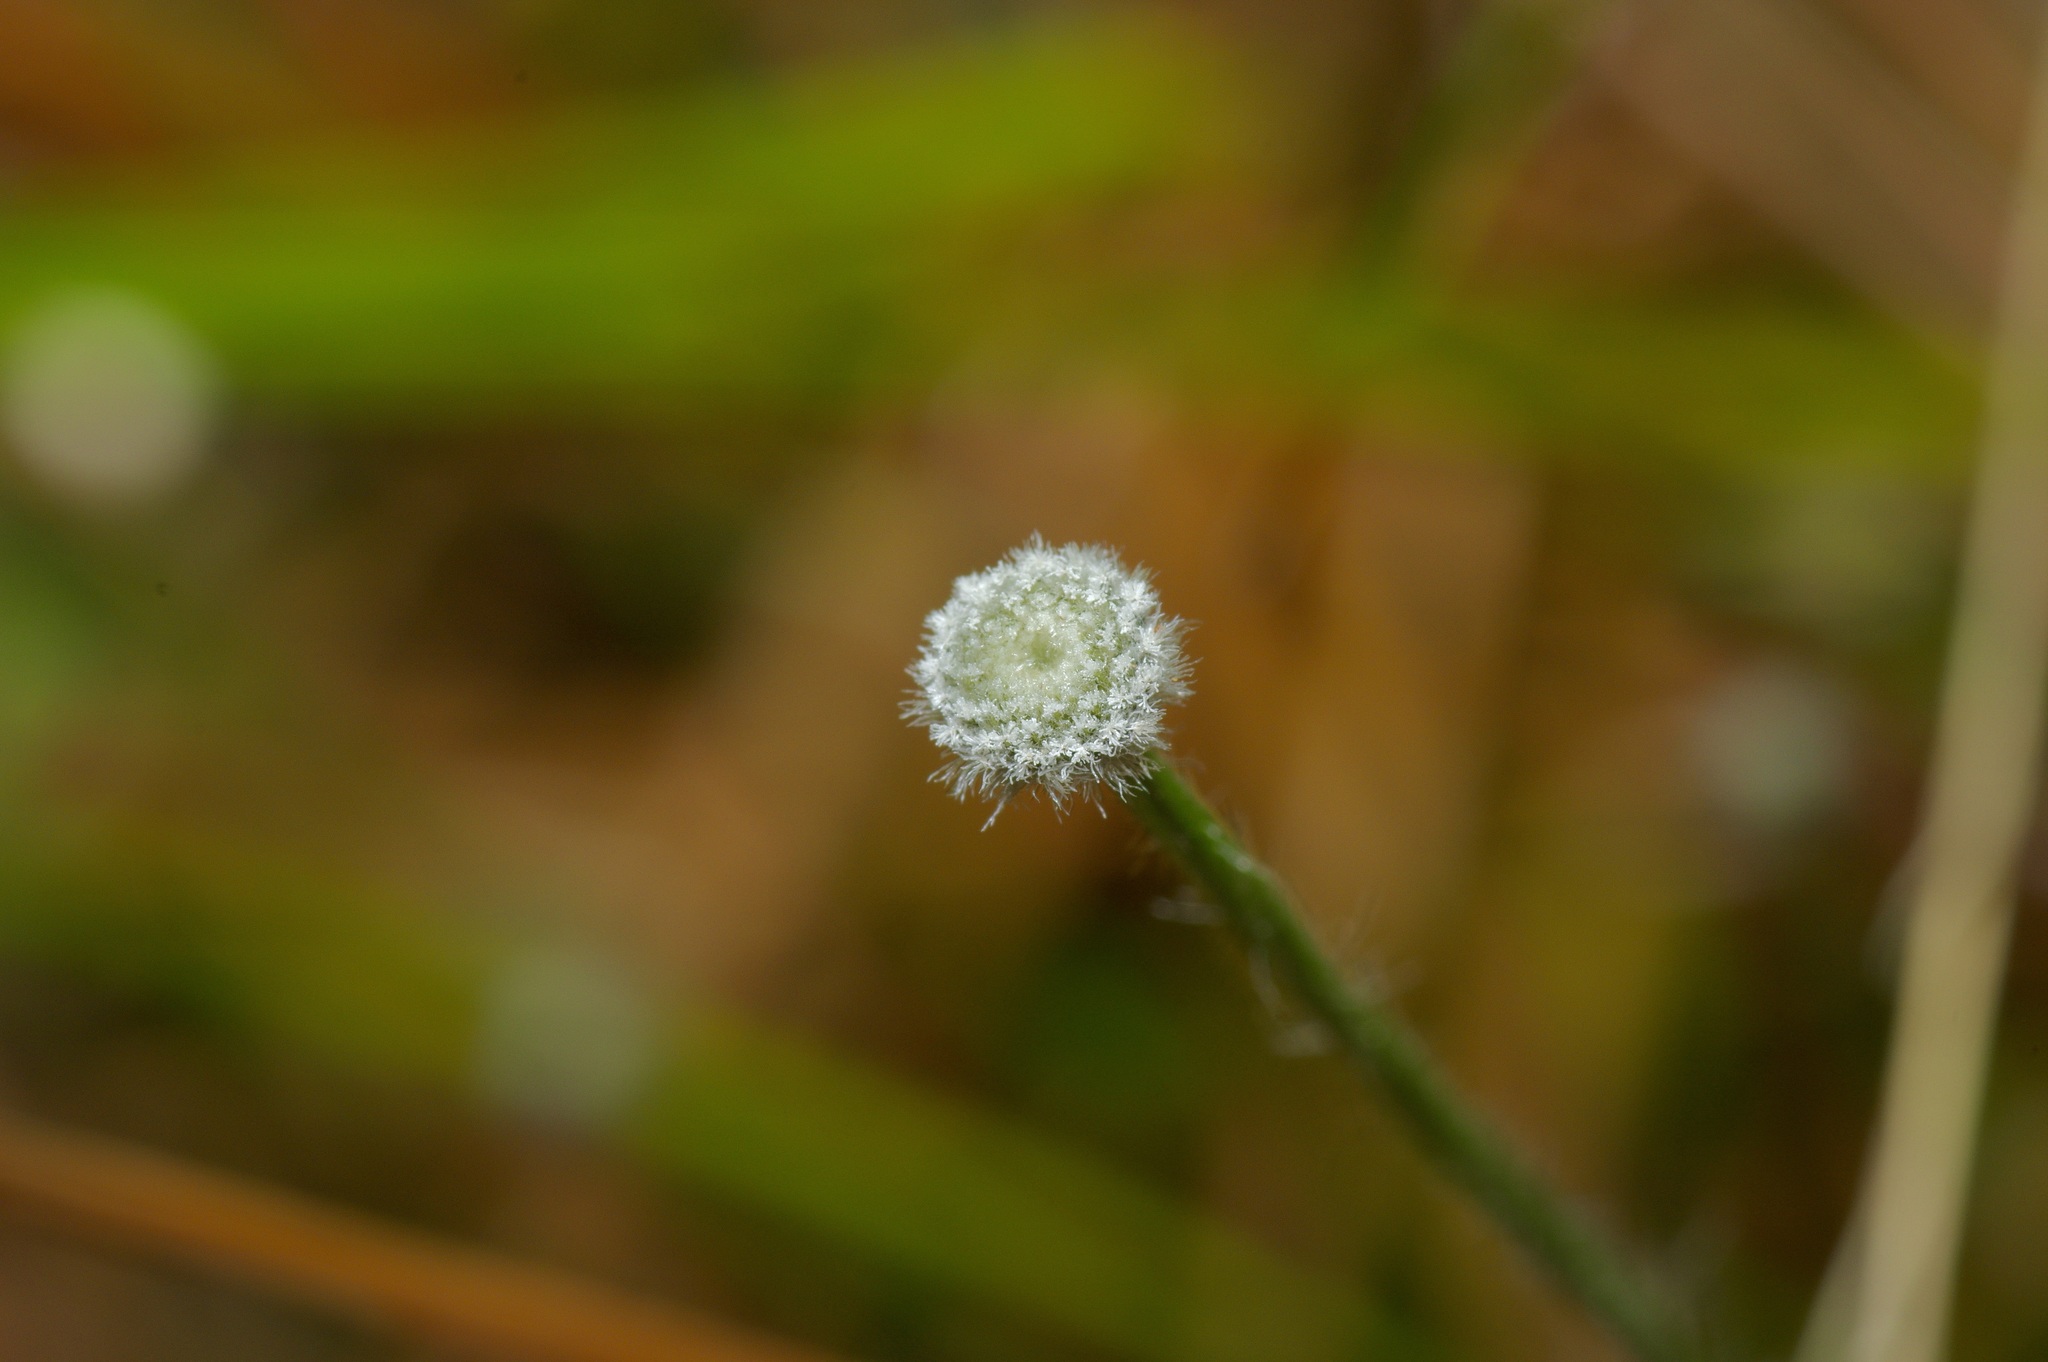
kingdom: Plantae
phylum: Tracheophyta
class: Liliopsida
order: Poales
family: Eriocaulaceae
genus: Paepalanthus
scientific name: Paepalanthus anceps
